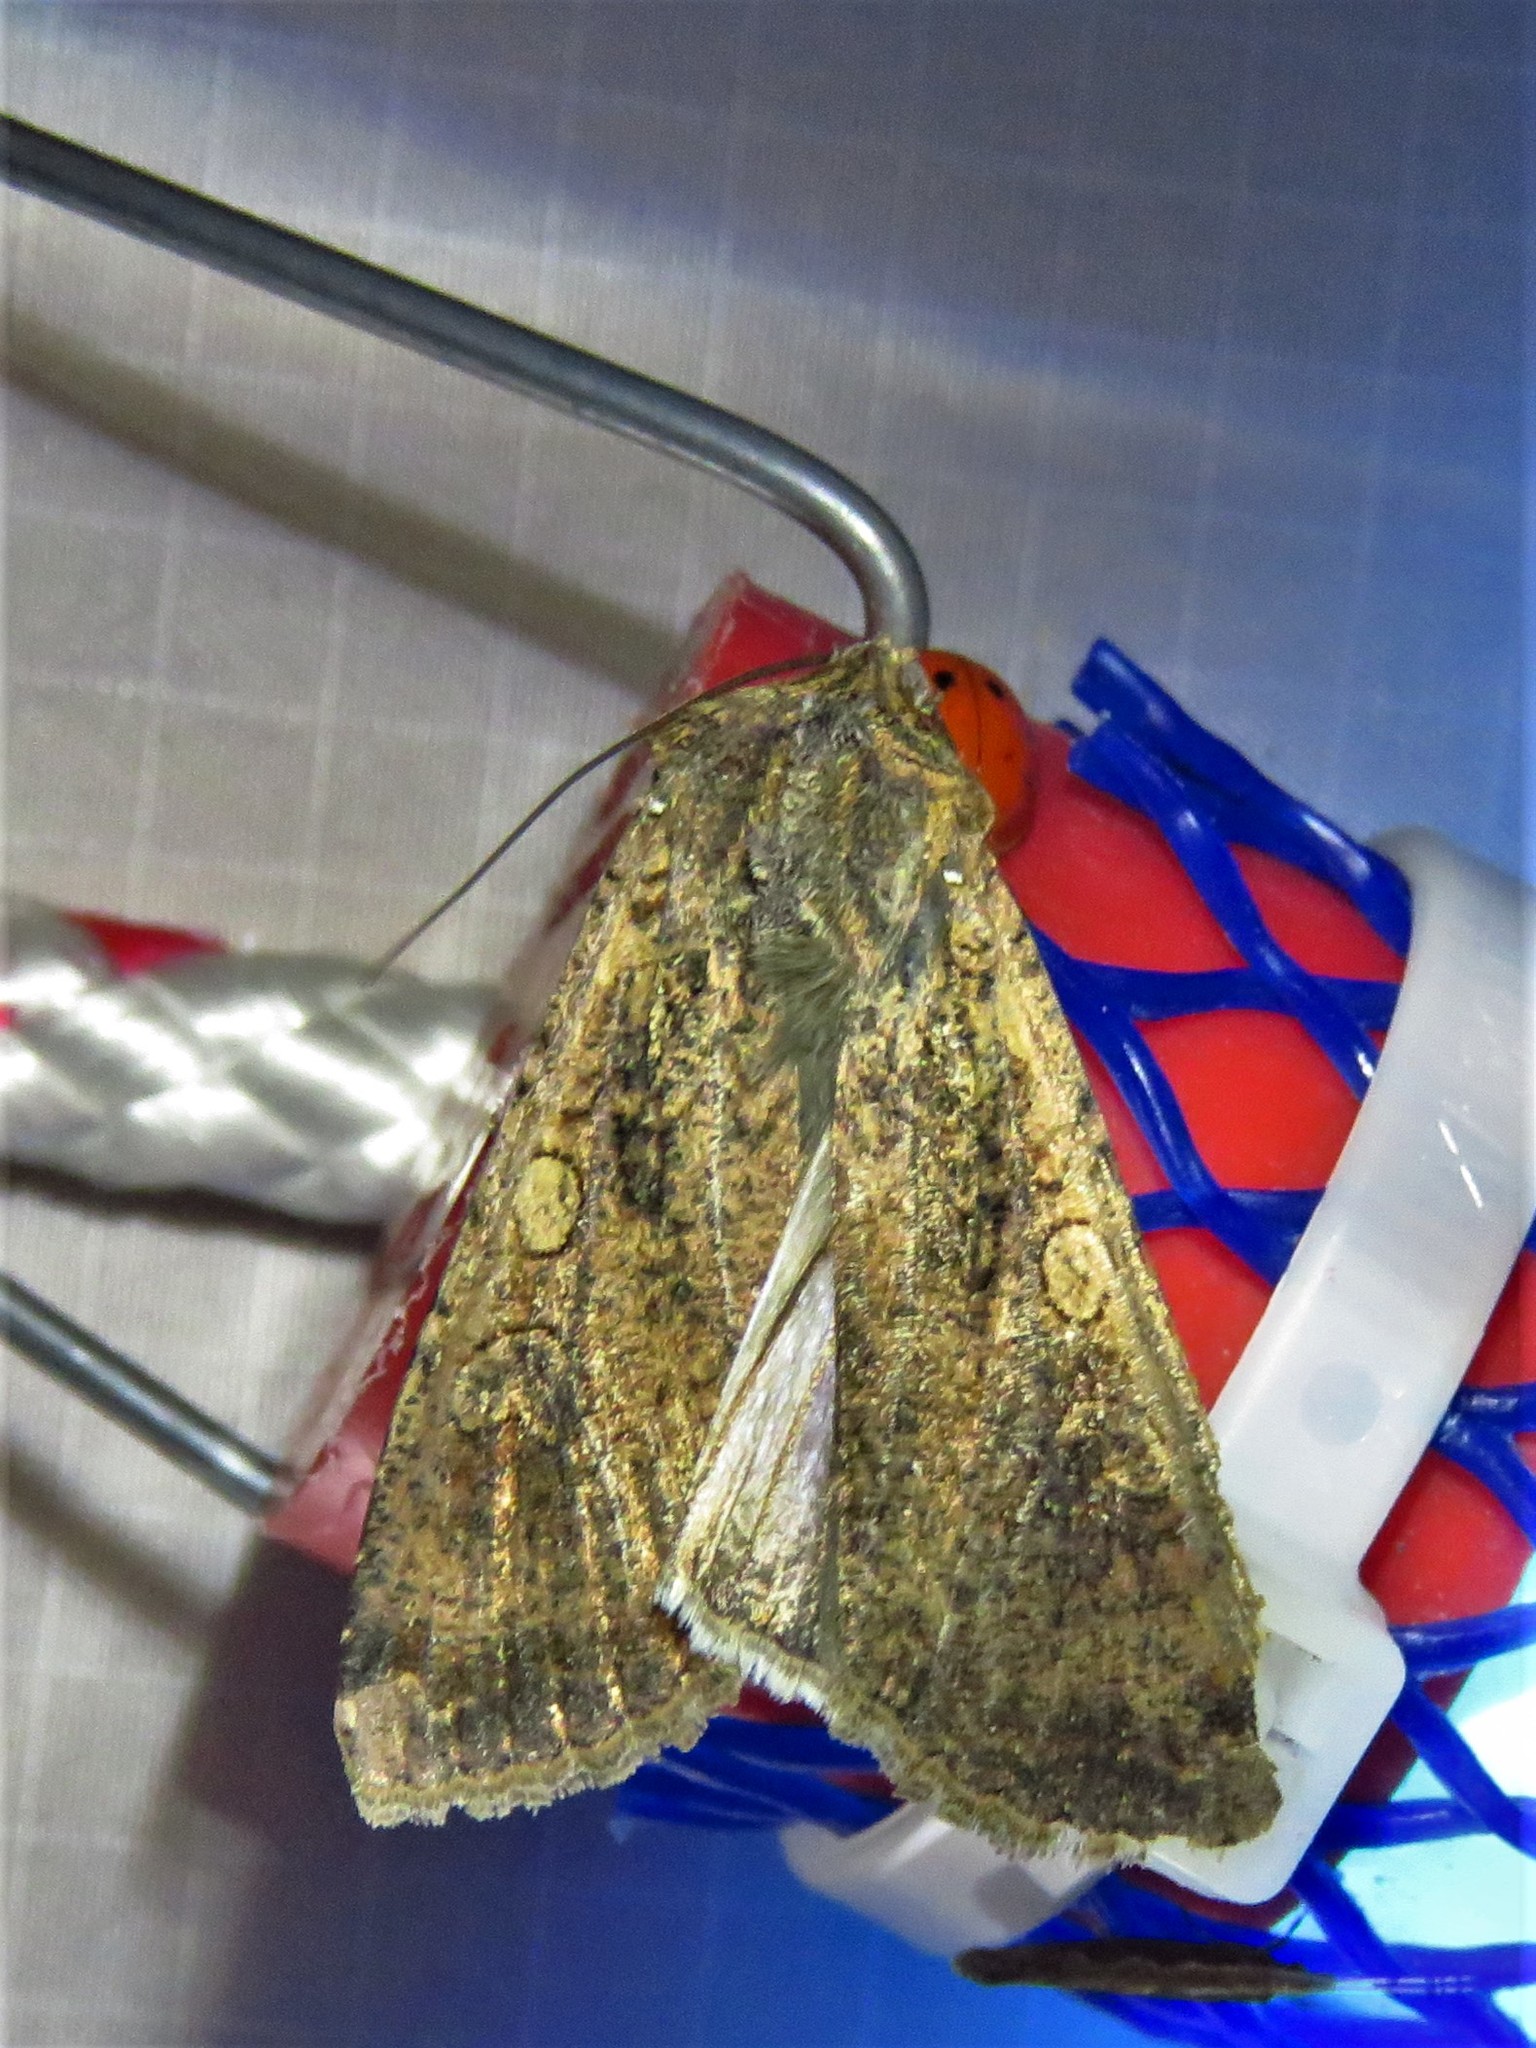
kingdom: Animalia
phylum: Arthropoda
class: Insecta
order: Lepidoptera
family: Noctuidae
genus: Peridroma
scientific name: Peridroma saucia
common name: Pearly underwing
